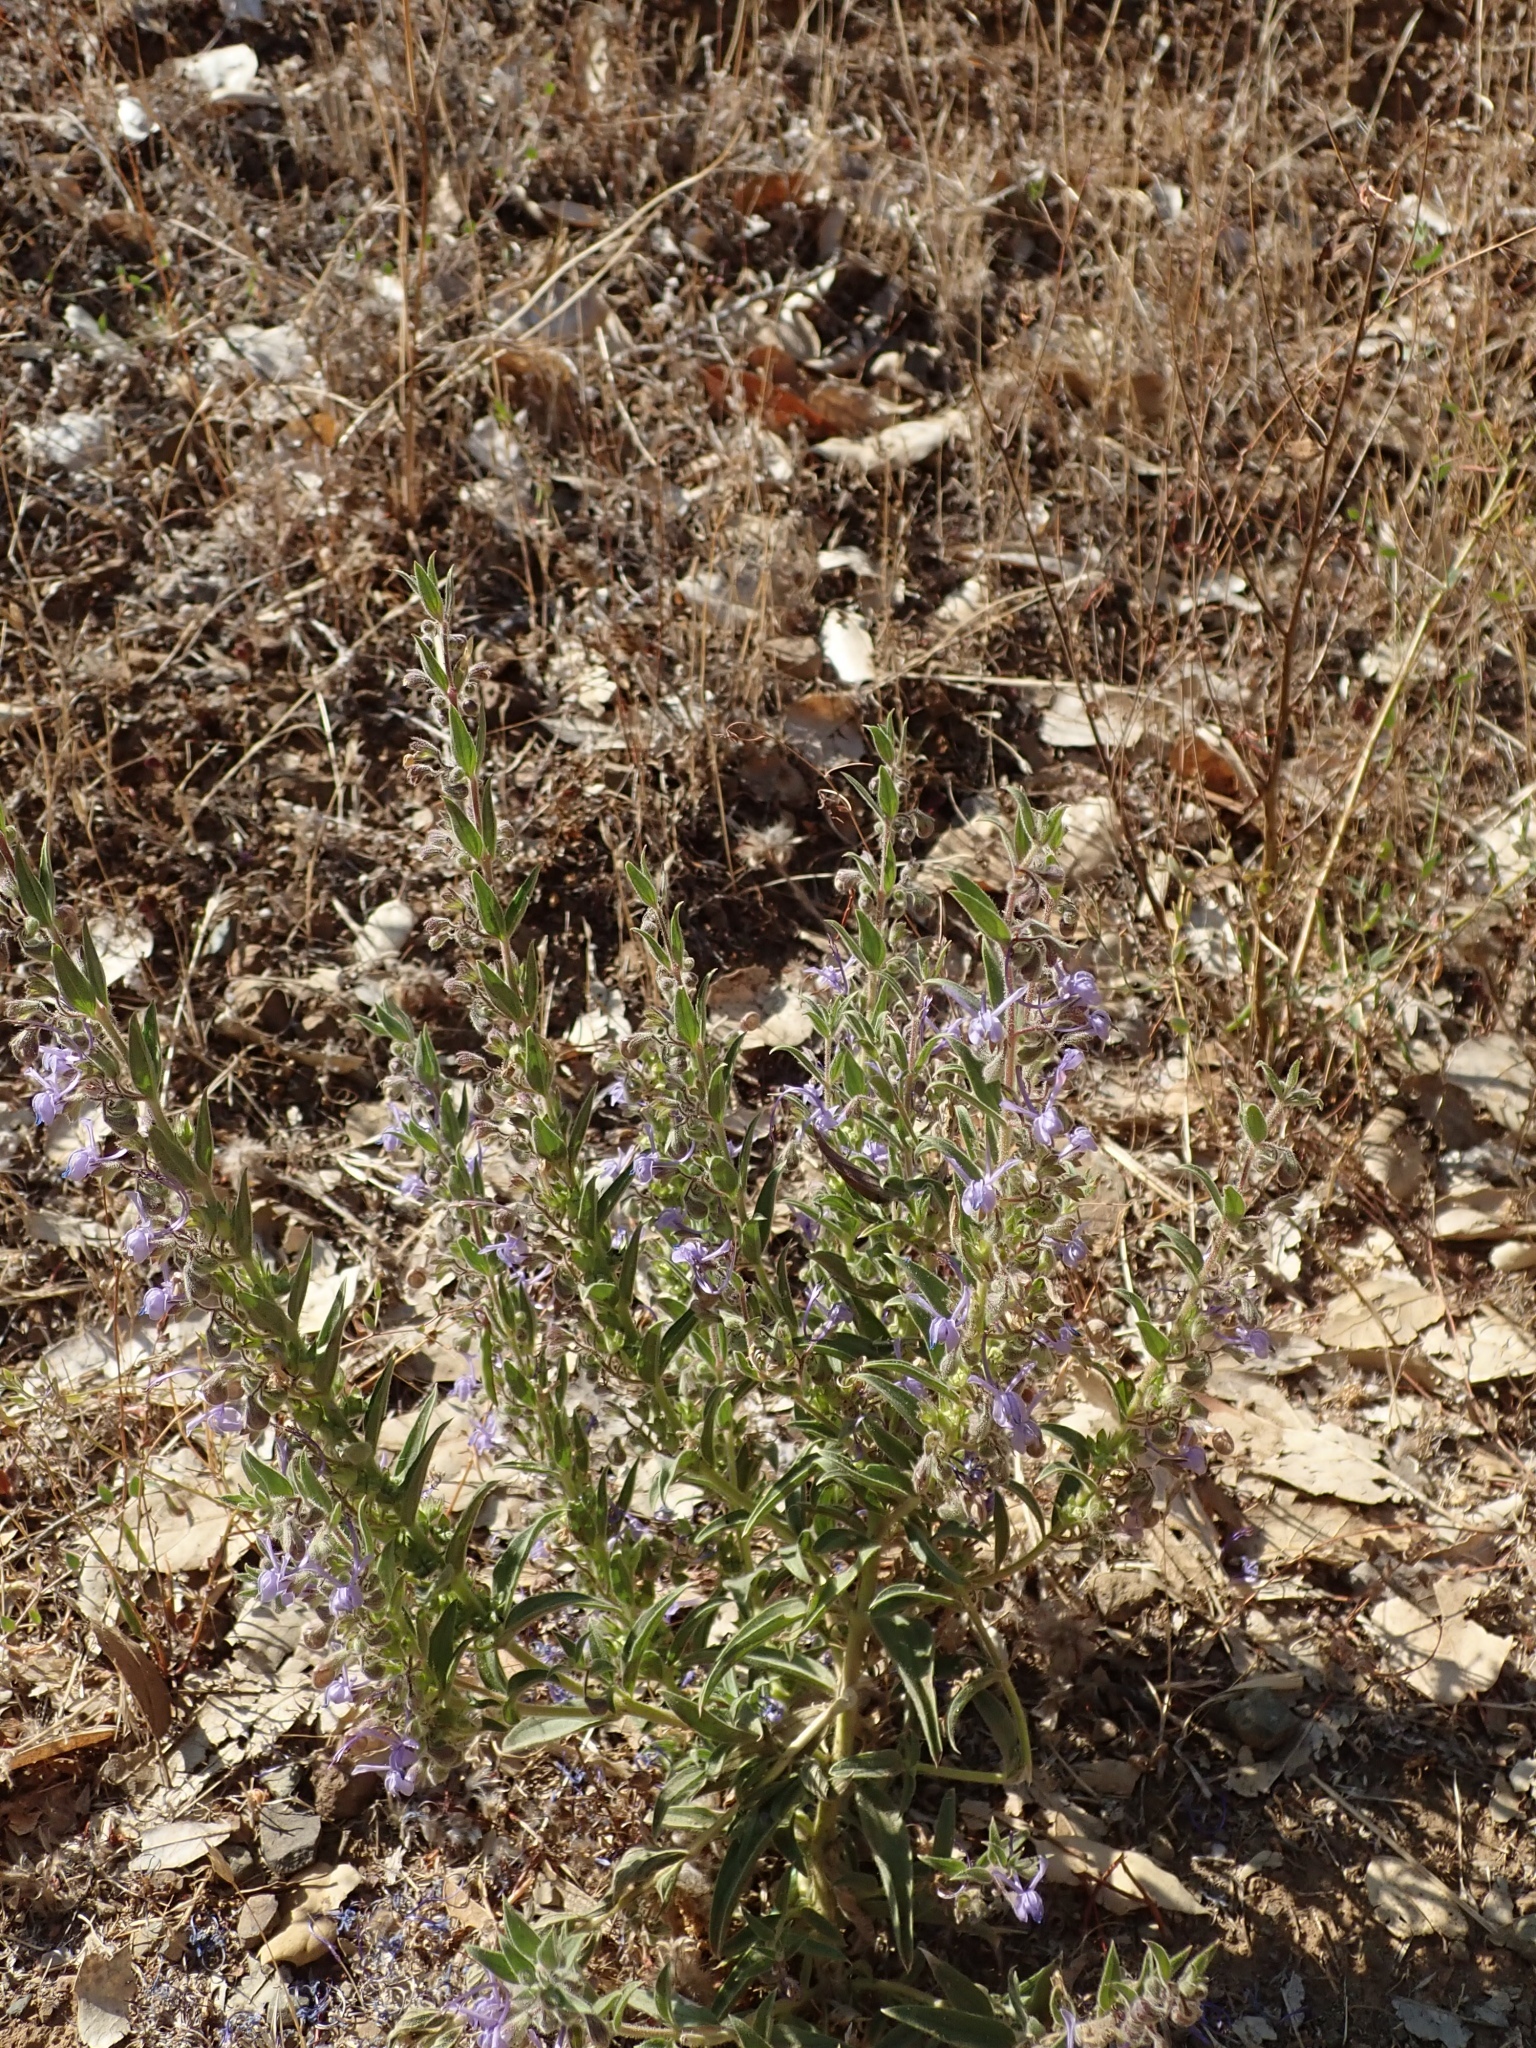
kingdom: Plantae
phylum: Tracheophyta
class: Magnoliopsida
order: Lamiales
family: Lamiaceae
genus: Trichostema
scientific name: Trichostema lanceolatum
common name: Vinegar-weed
